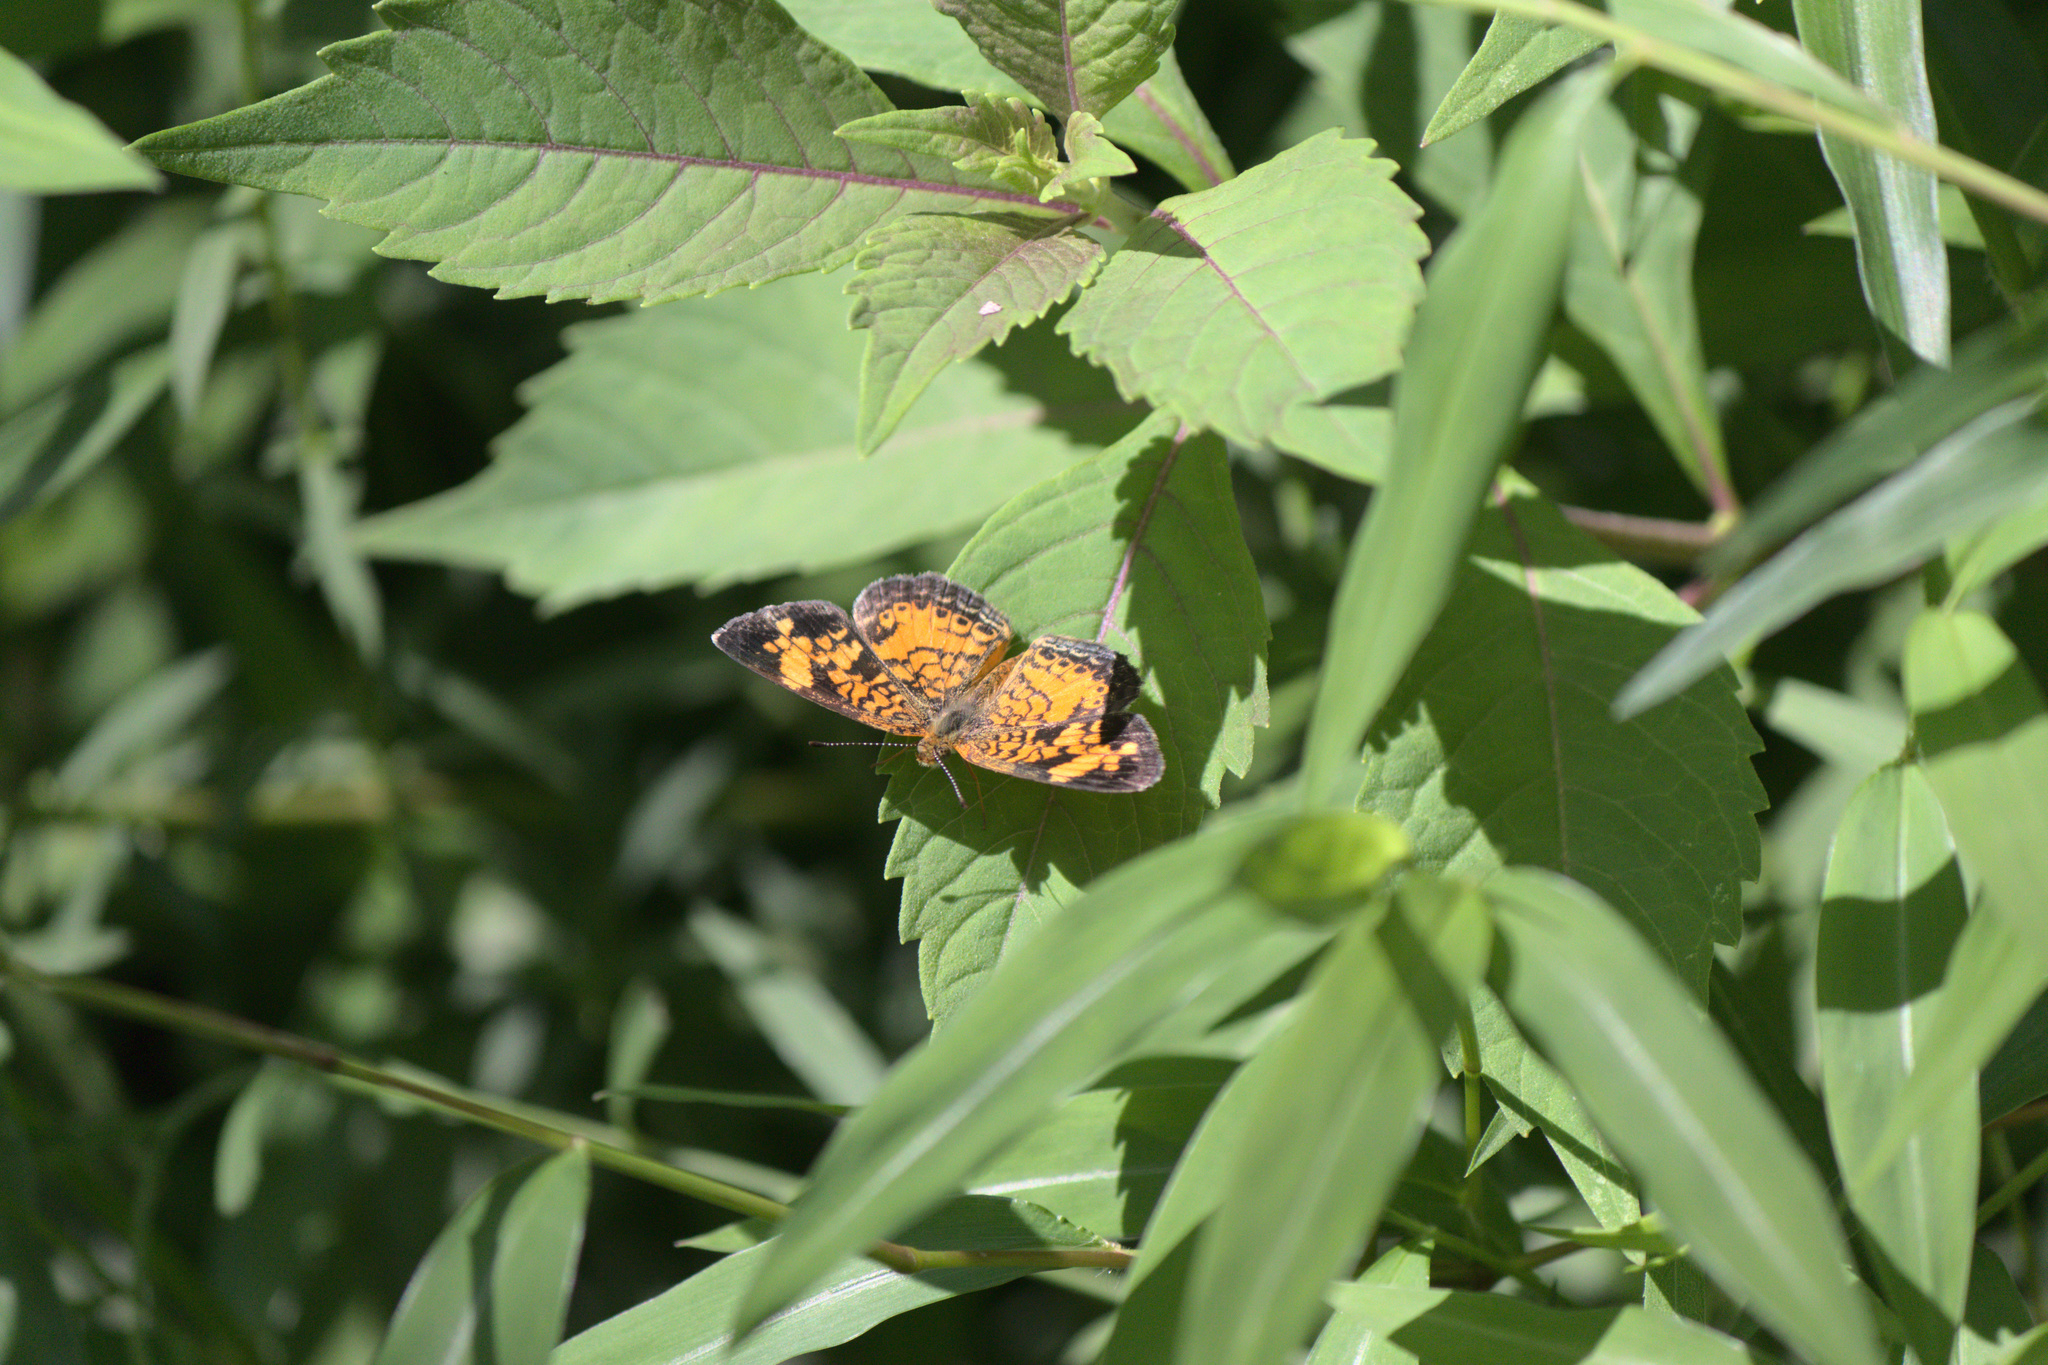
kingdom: Animalia
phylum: Arthropoda
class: Insecta
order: Lepidoptera
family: Nymphalidae
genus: Phyciodes
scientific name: Phyciodes tharos
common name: Pearl crescent
